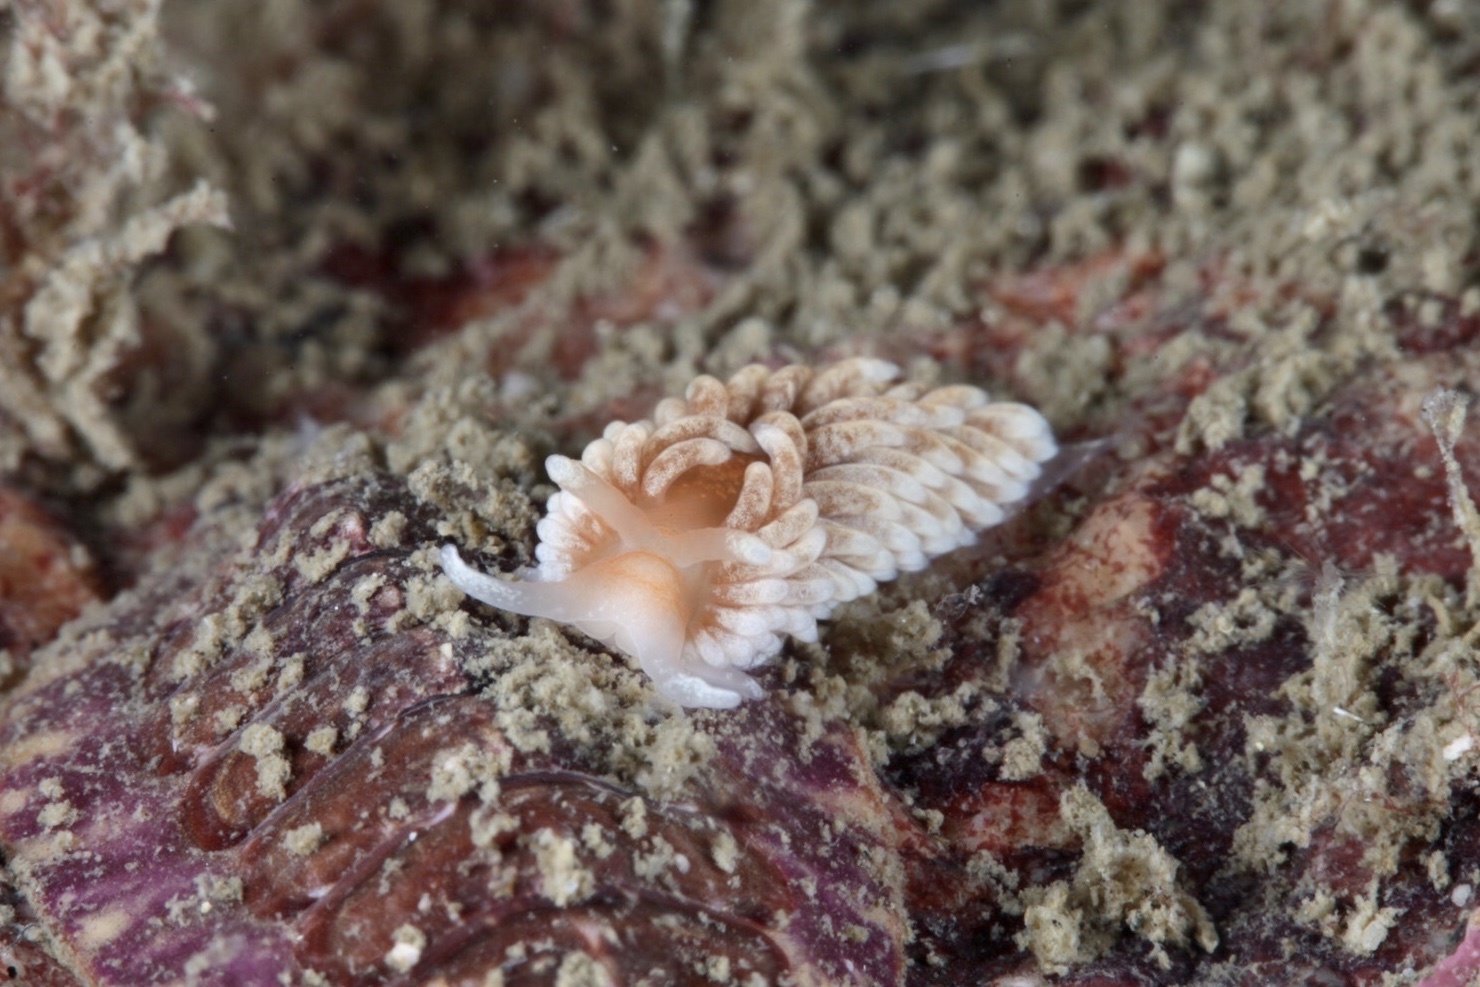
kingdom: Animalia
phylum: Mollusca
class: Gastropoda
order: Nudibranchia
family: Aeolidiidae
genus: Aeolidiella
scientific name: Aeolidiella glauca
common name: Orange-brown aeolid
